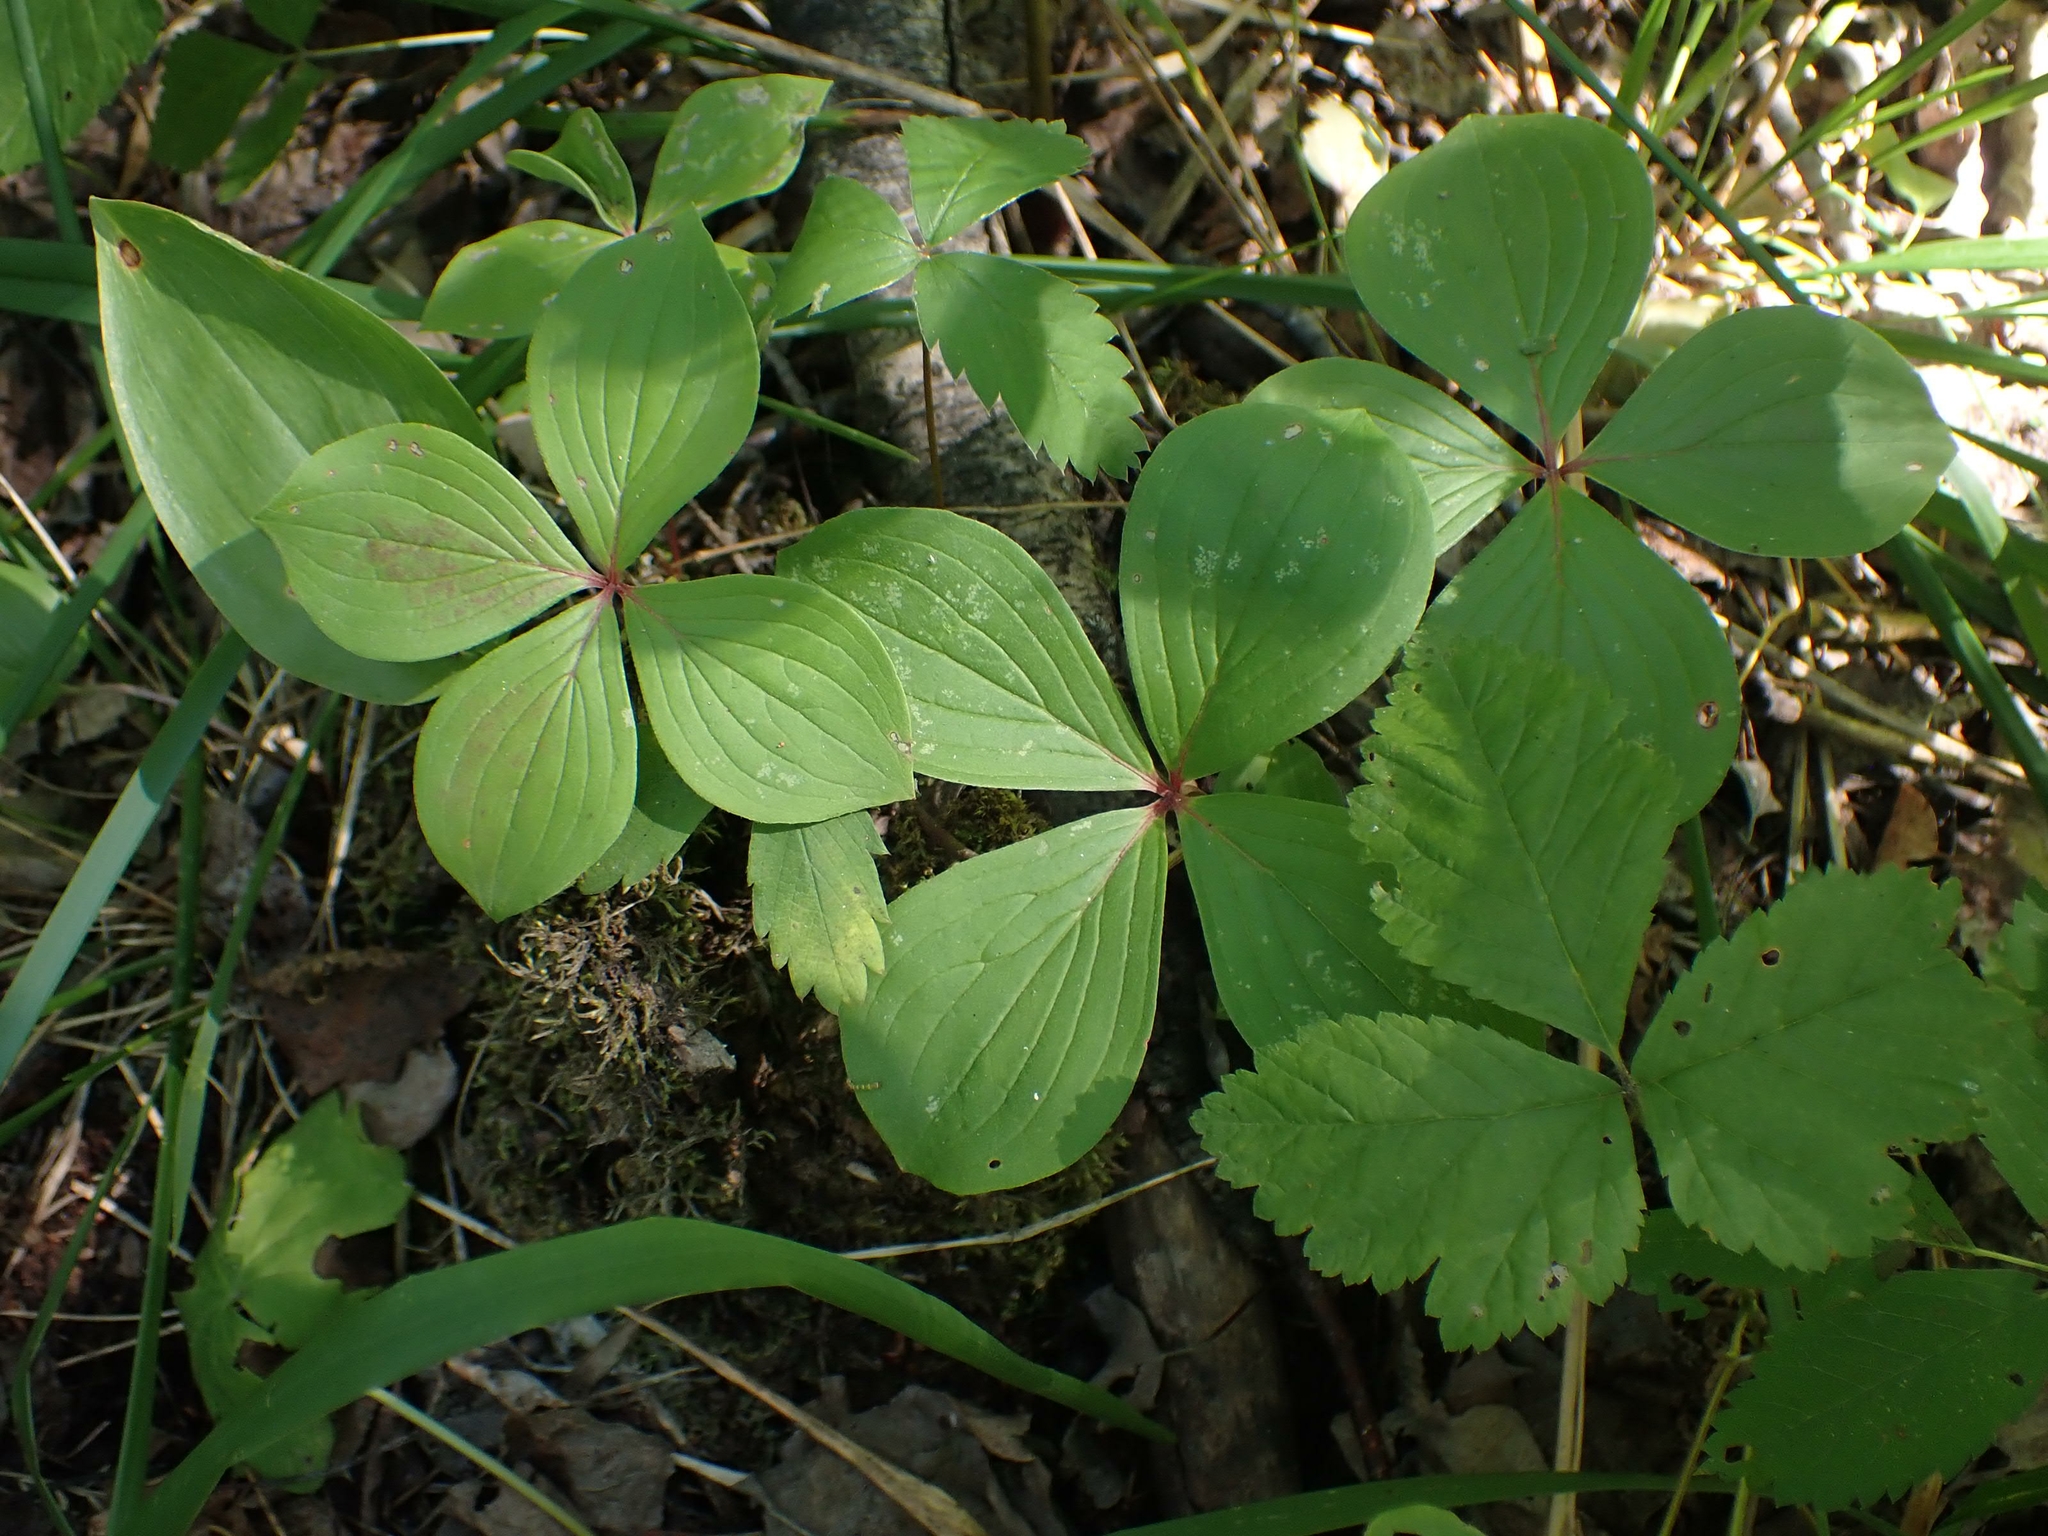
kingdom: Plantae
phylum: Tracheophyta
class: Magnoliopsida
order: Cornales
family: Cornaceae
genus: Cornus
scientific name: Cornus canadensis
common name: Creeping dogwood
